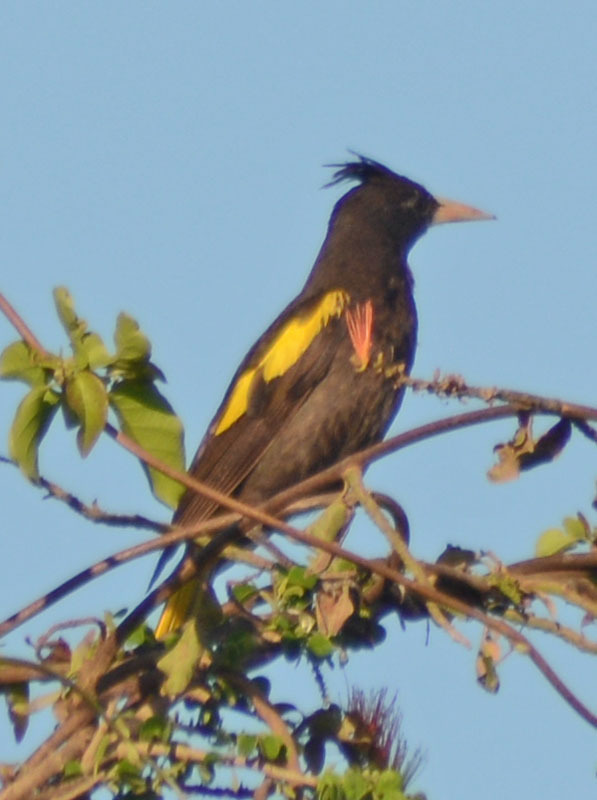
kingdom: Animalia
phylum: Chordata
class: Aves
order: Passeriformes
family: Icteridae
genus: Cacicus
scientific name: Cacicus melanicterus
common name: Yellow-winged cacique
